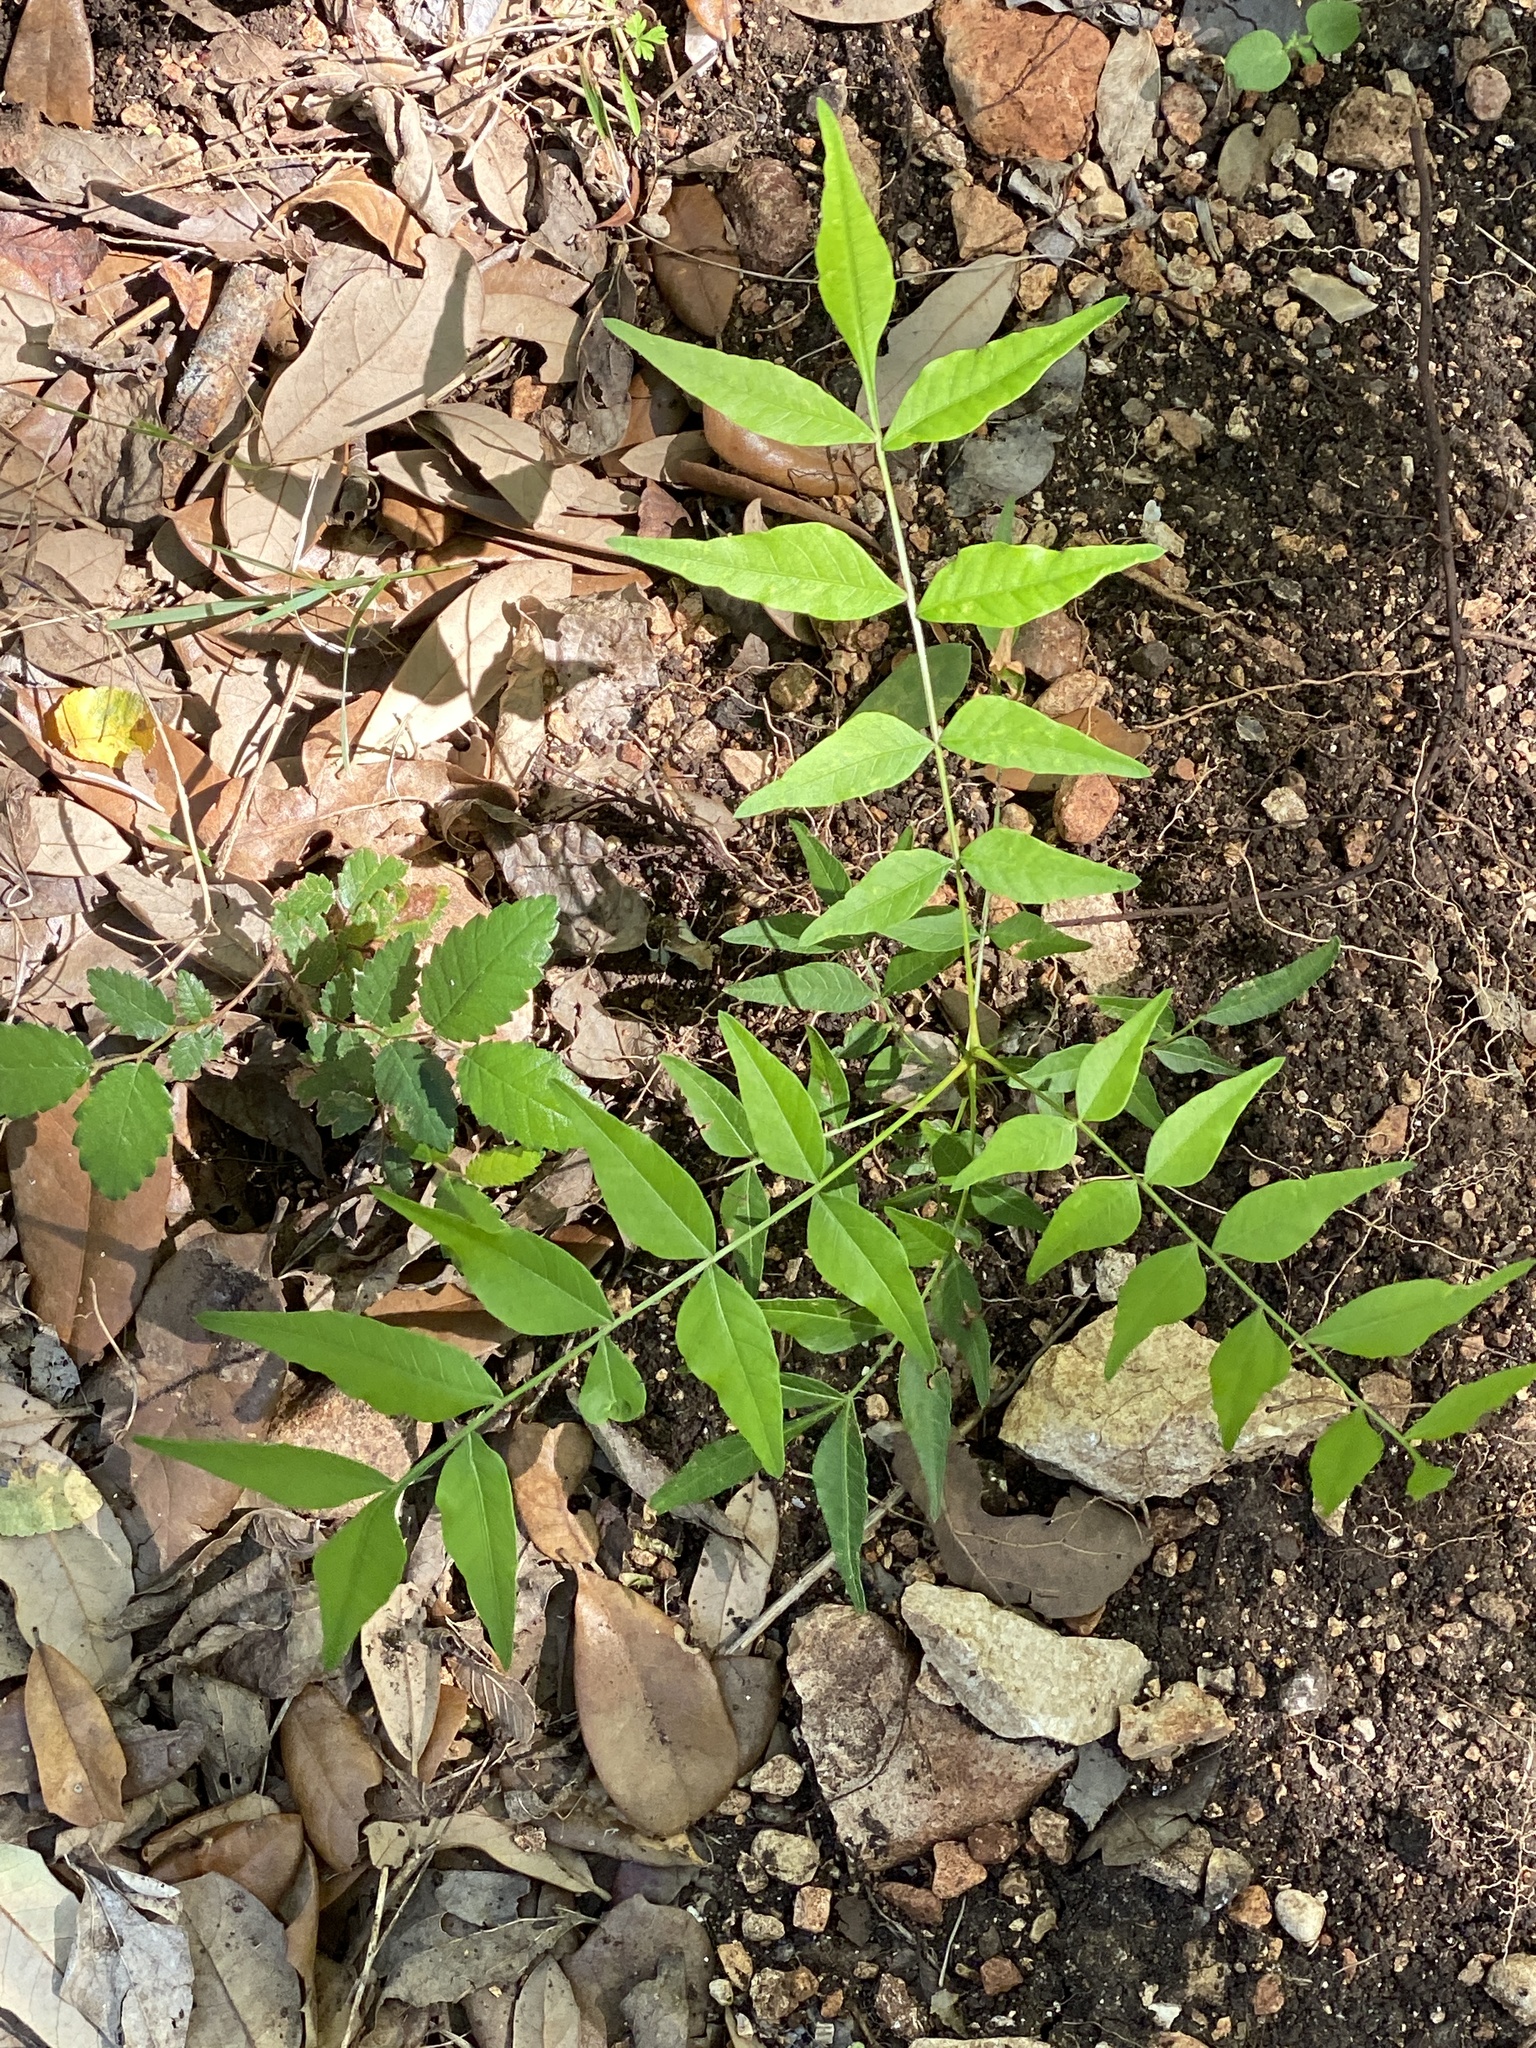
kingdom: Plantae
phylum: Tracheophyta
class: Magnoliopsida
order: Sapindales
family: Sapindaceae
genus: Sapindus
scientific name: Sapindus drummondii
